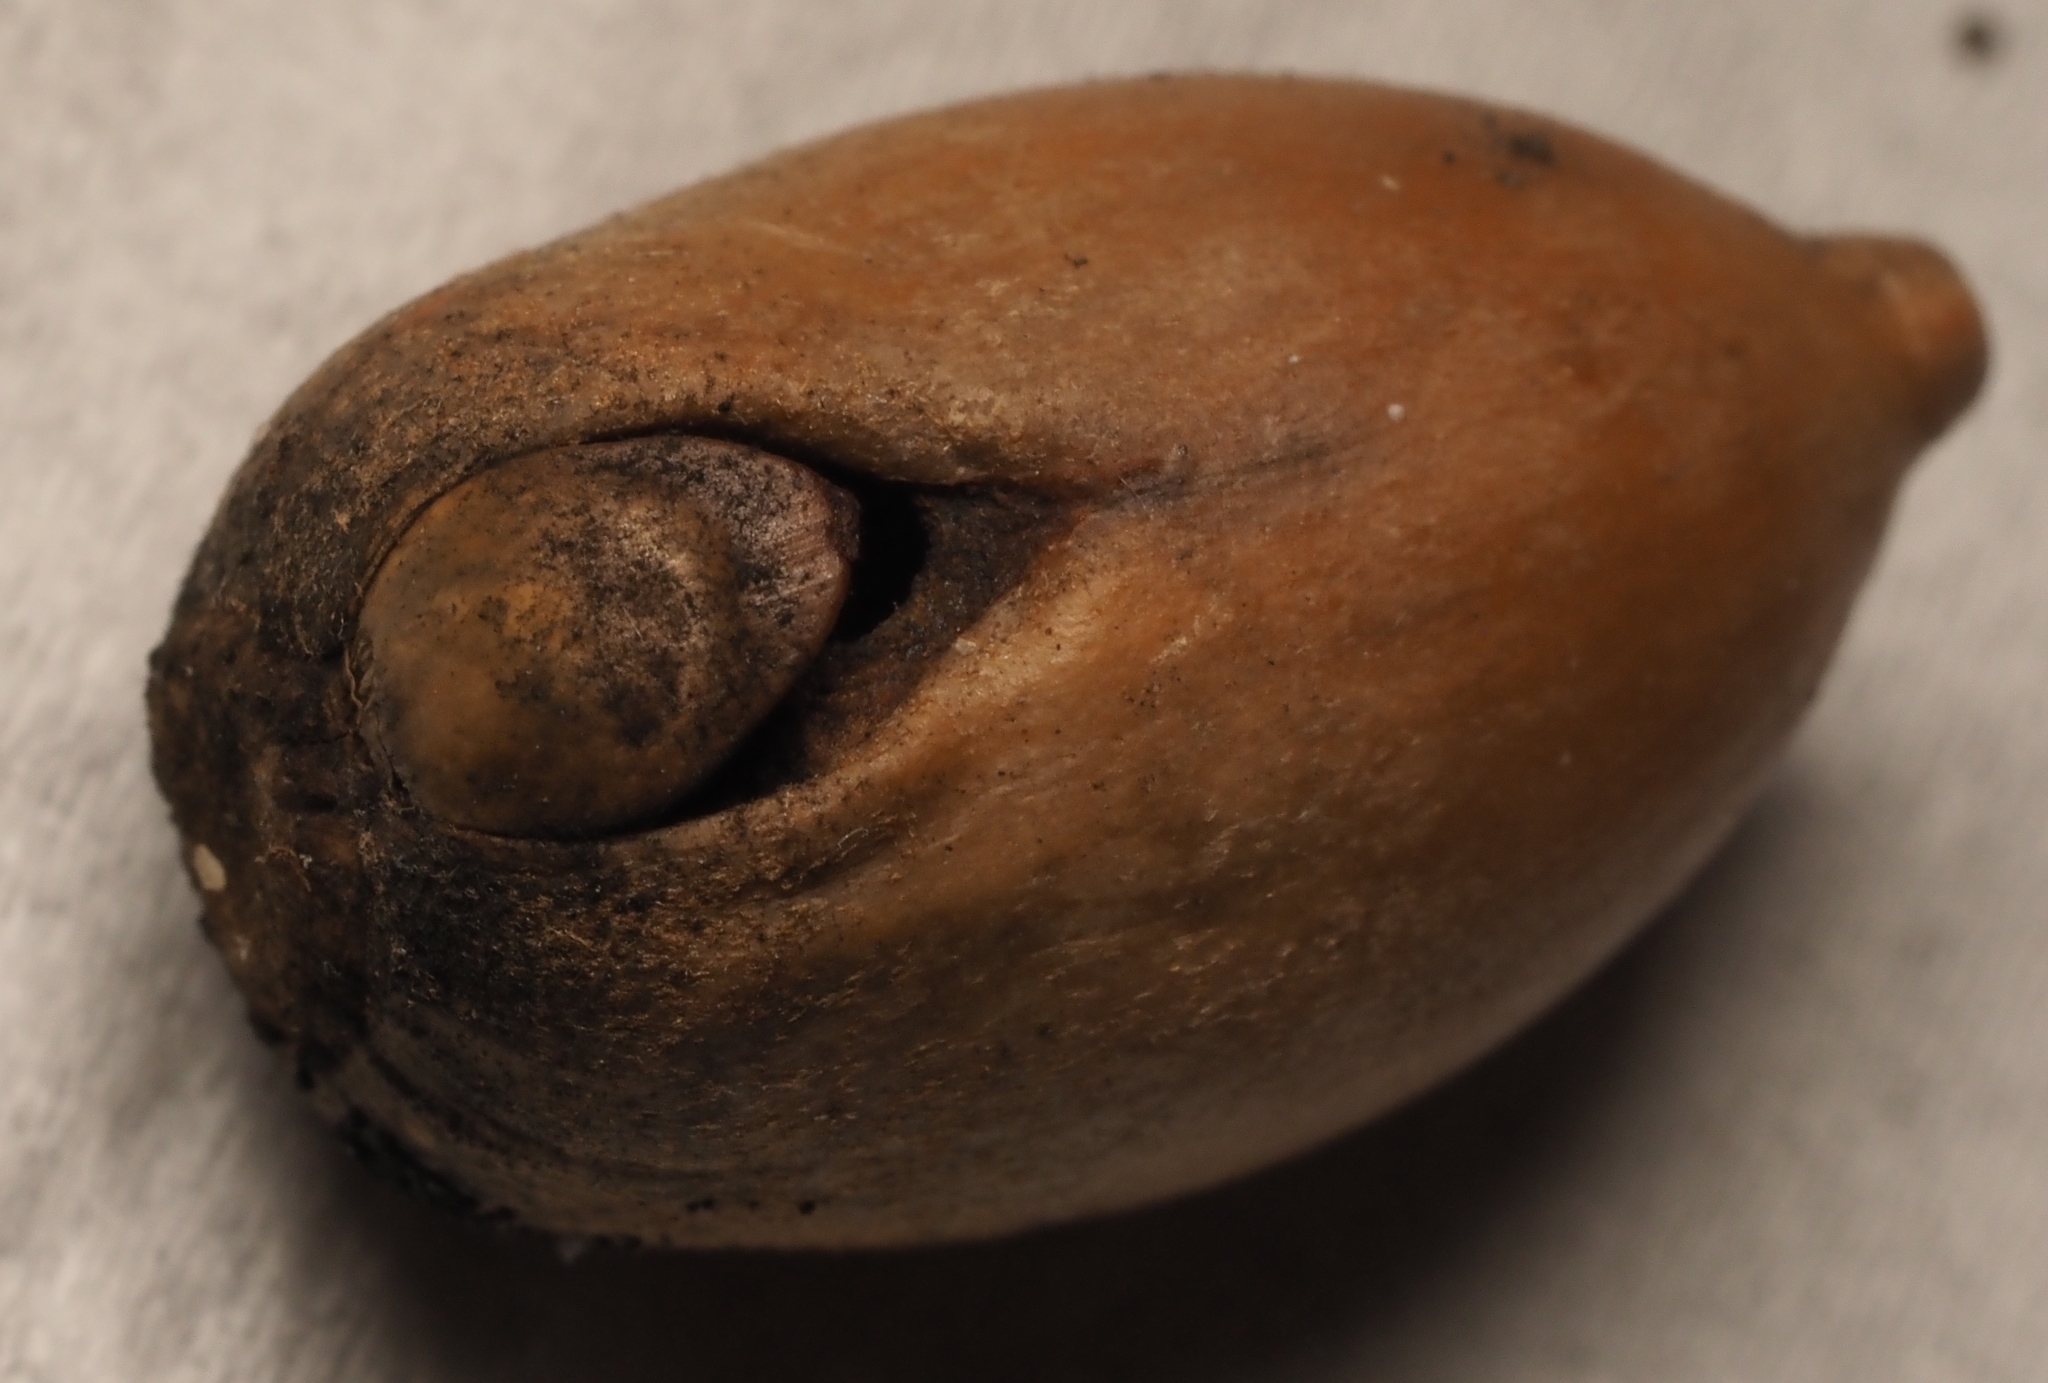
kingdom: Animalia
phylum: Arthropoda
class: Insecta
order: Hymenoptera
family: Cynipidae
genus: Callirhytis
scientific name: Callirhytis
